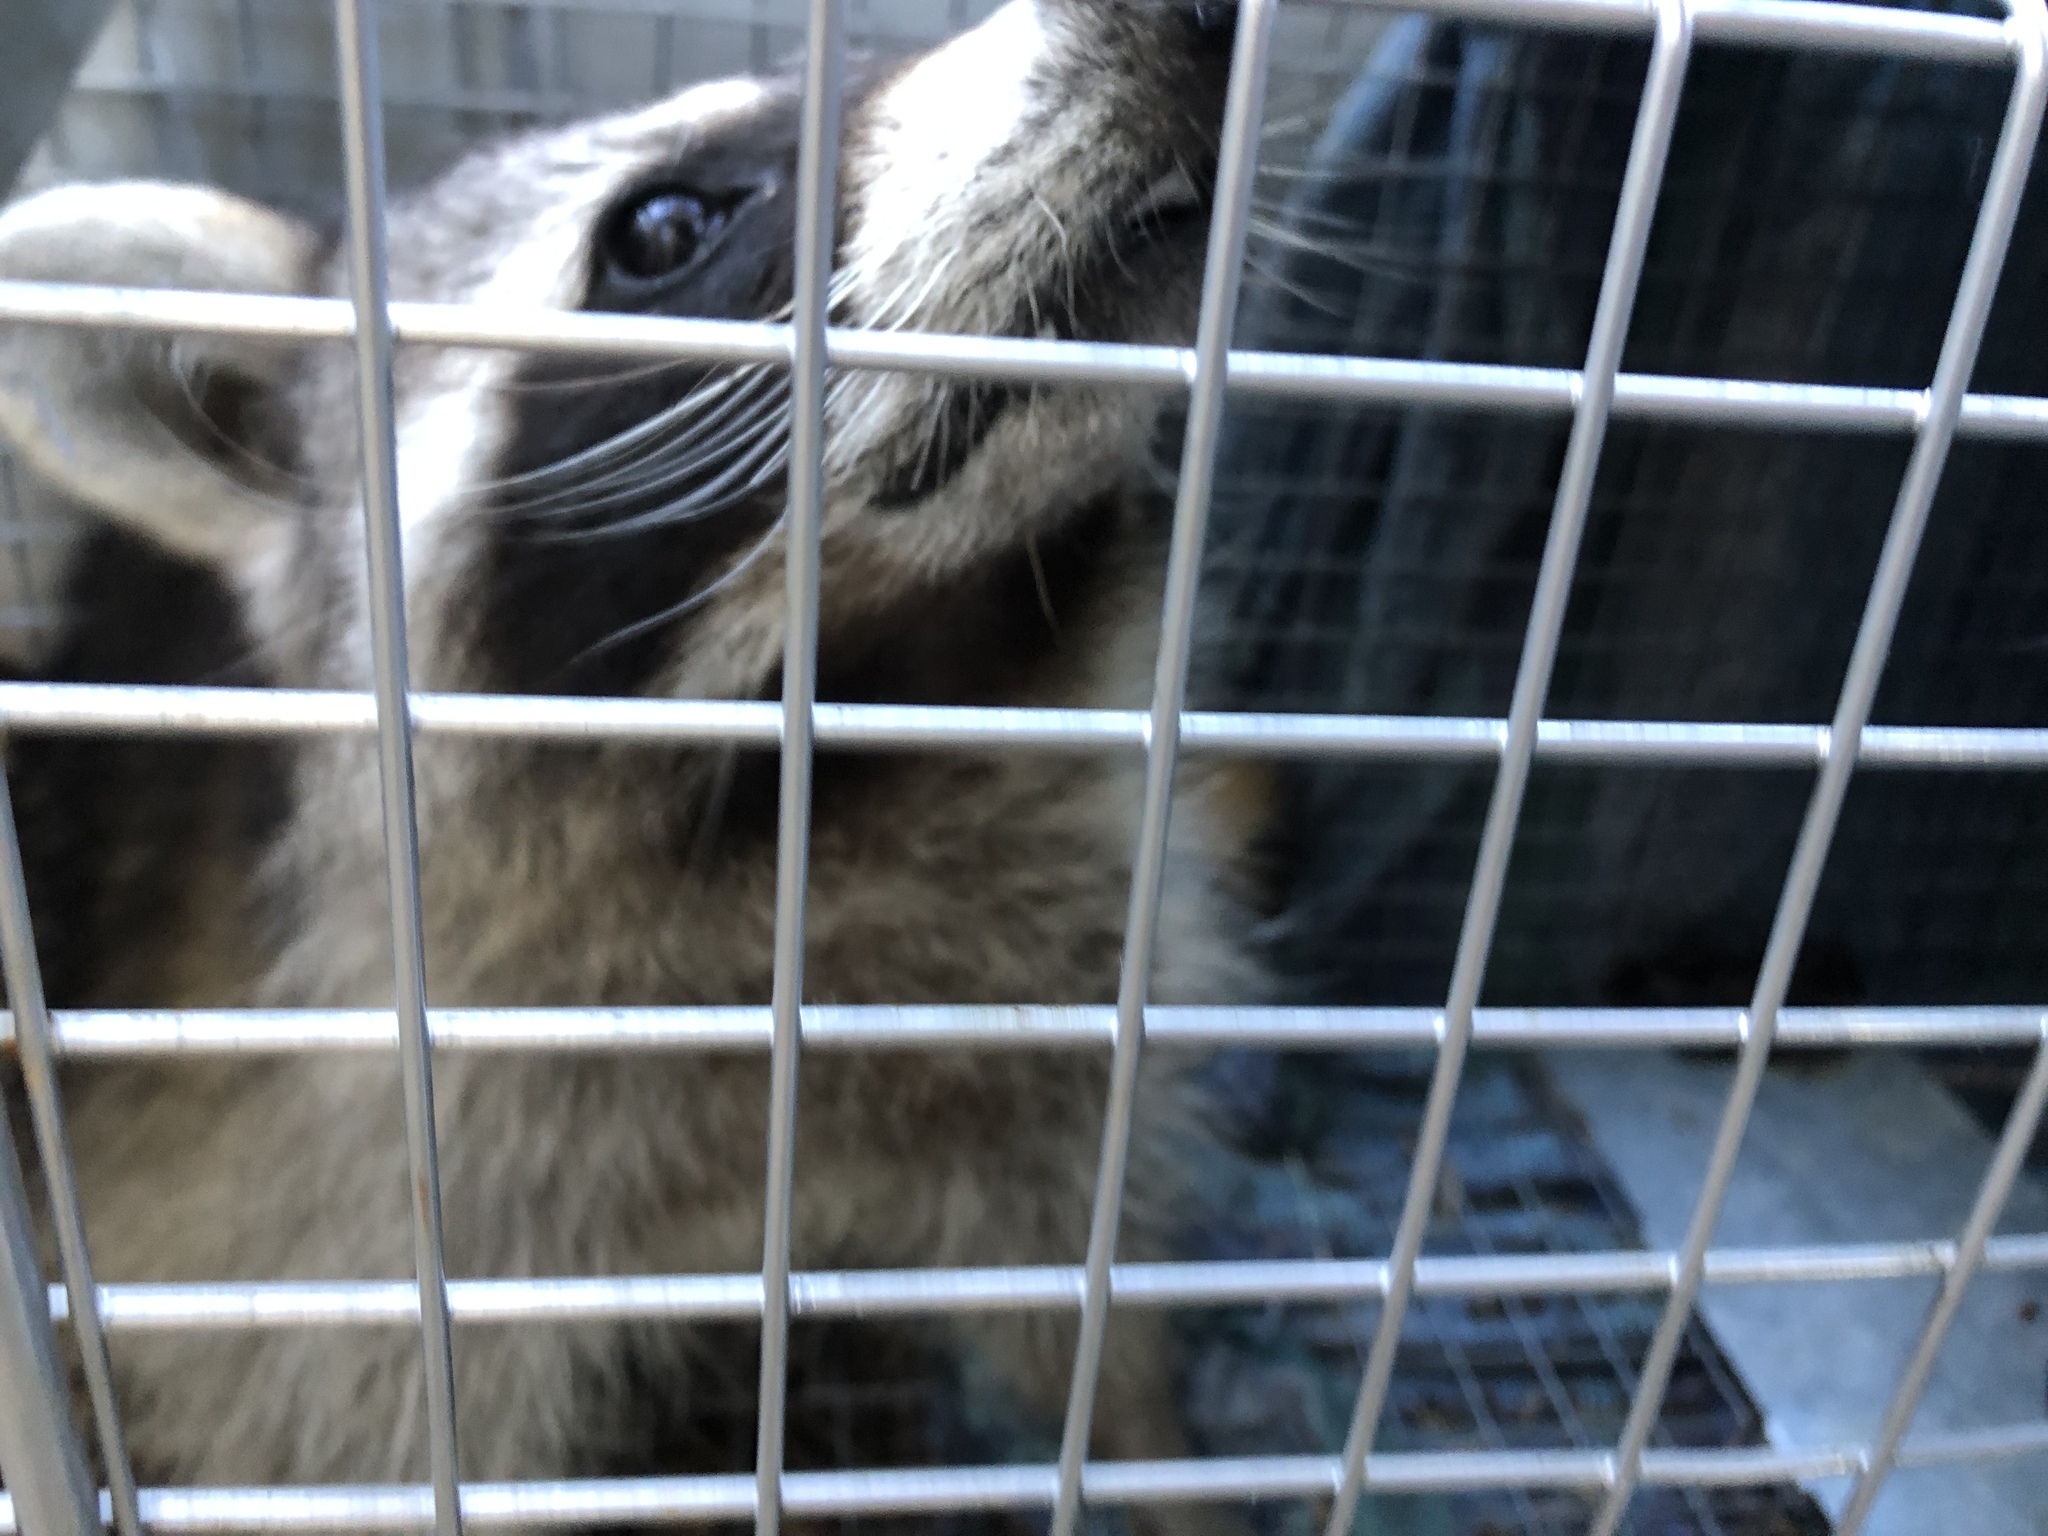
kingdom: Animalia
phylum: Chordata
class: Mammalia
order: Carnivora
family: Procyonidae
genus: Procyon
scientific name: Procyon lotor
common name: Raccoon
